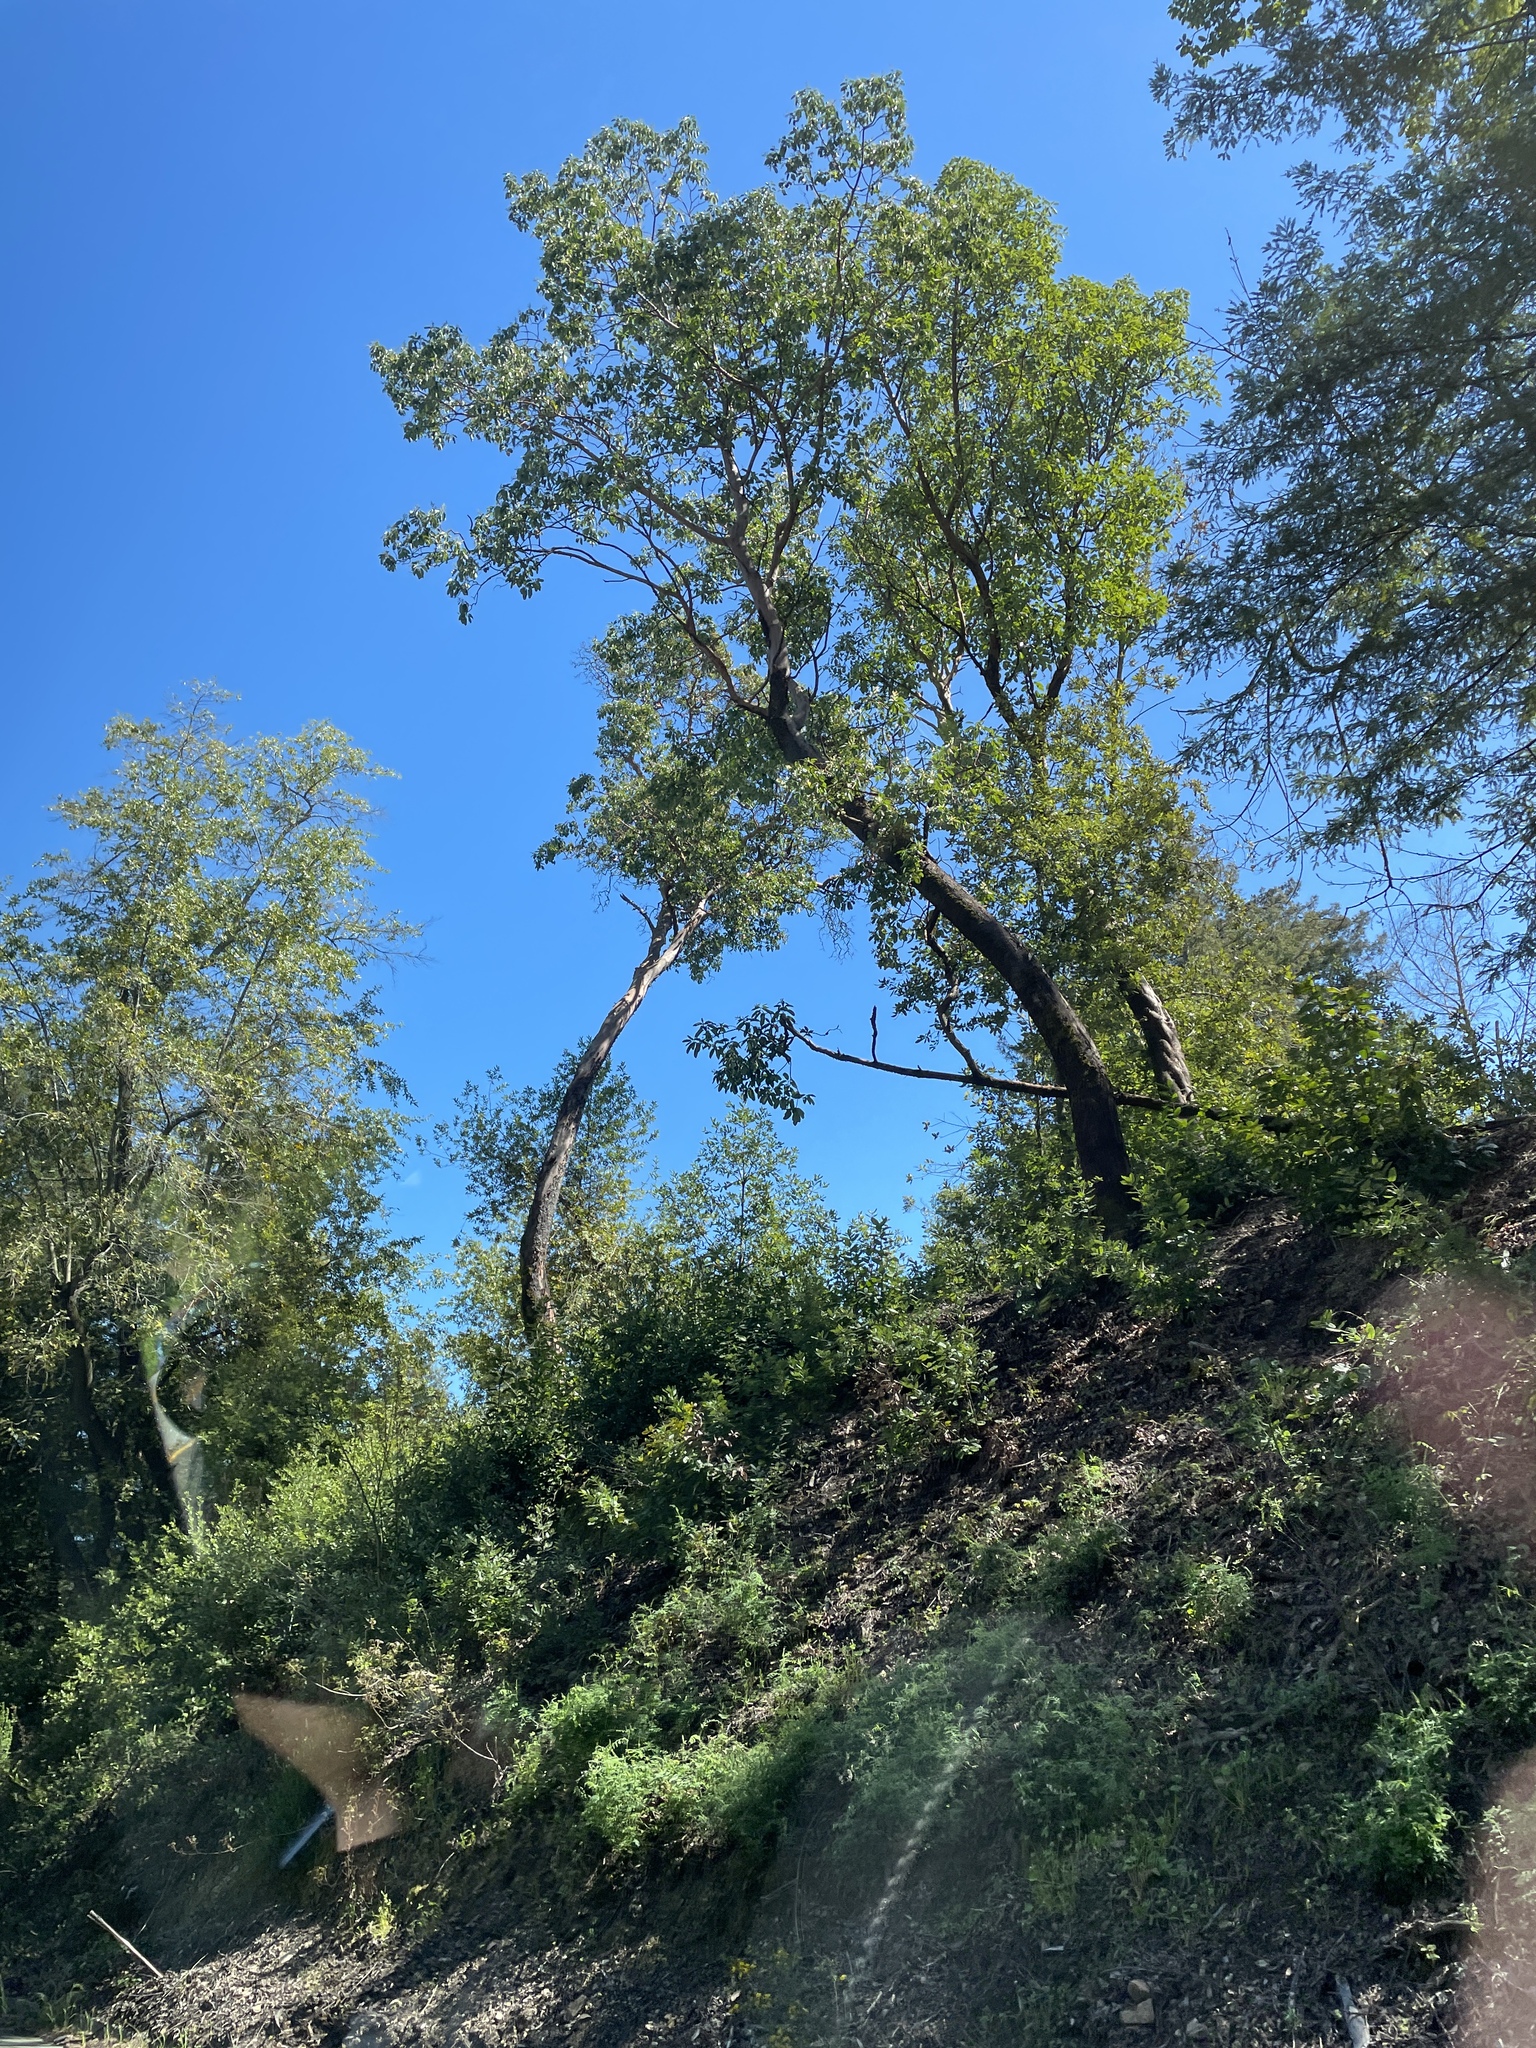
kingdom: Plantae
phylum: Tracheophyta
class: Magnoliopsida
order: Ericales
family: Ericaceae
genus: Arbutus
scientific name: Arbutus menziesii
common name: Pacific madrone
